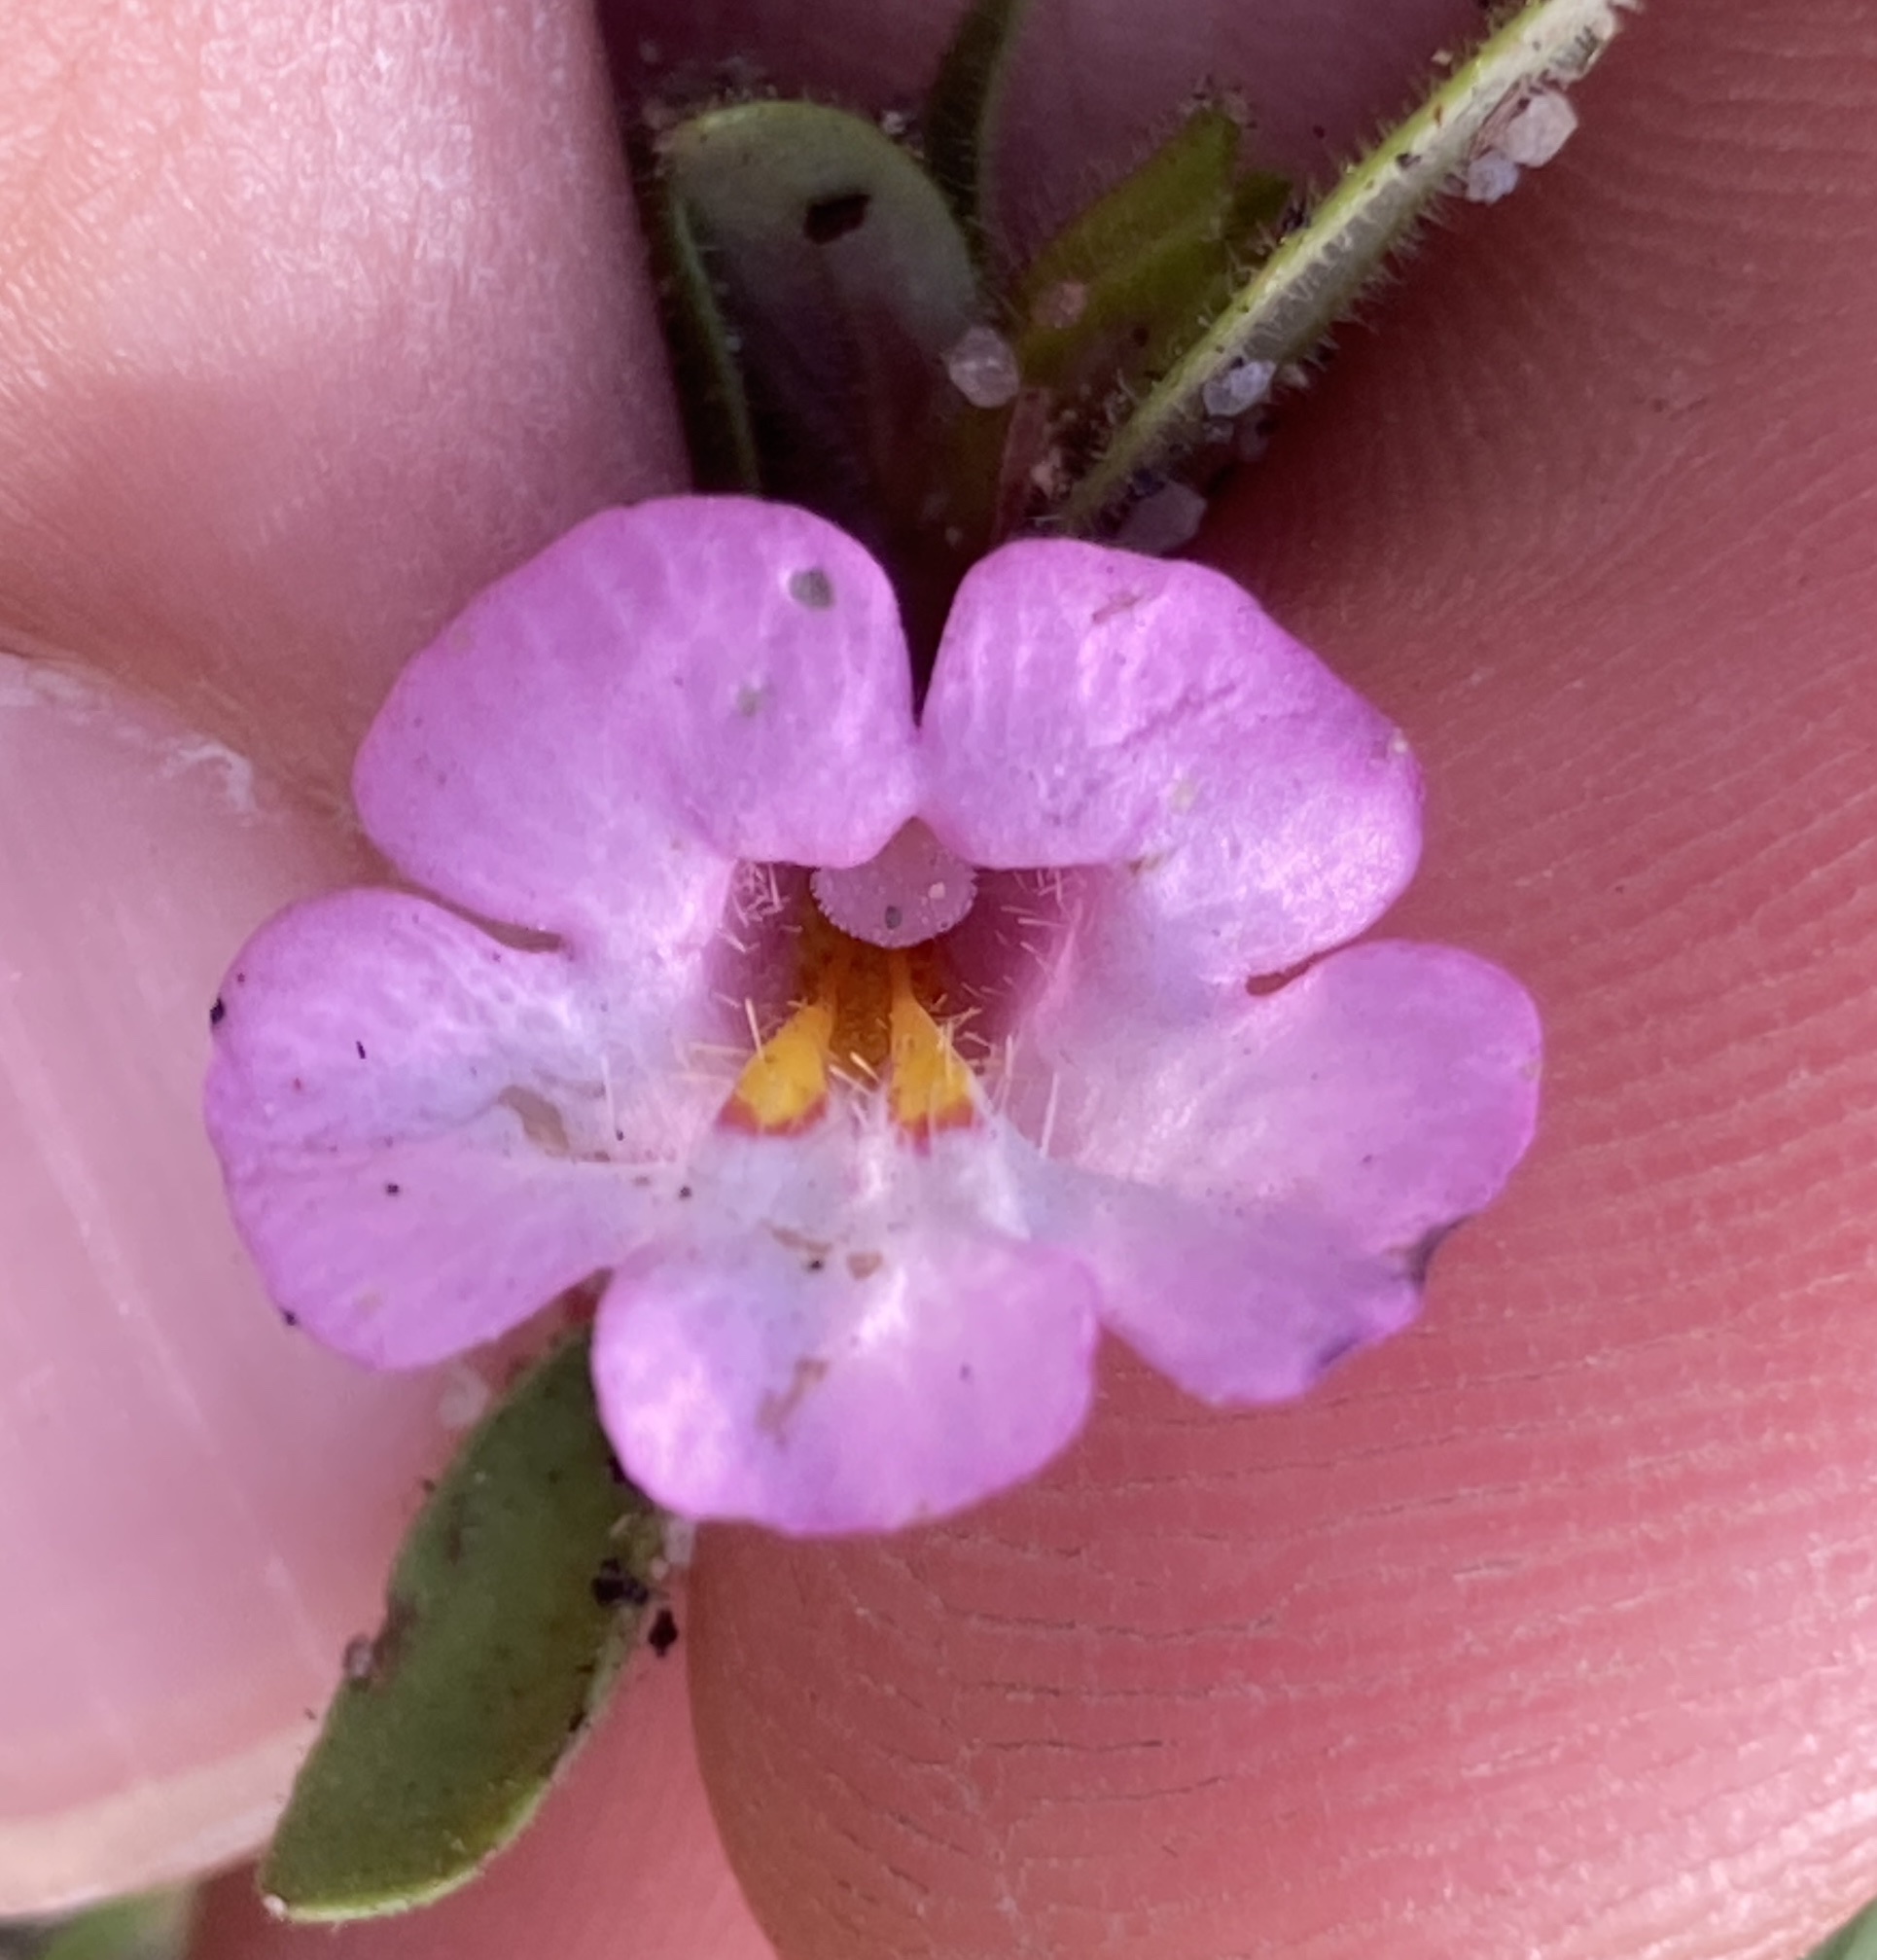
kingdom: Plantae
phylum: Tracheophyta
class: Magnoliopsida
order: Lamiales
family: Phrymaceae
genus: Diplacus
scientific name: Diplacus torreyi
